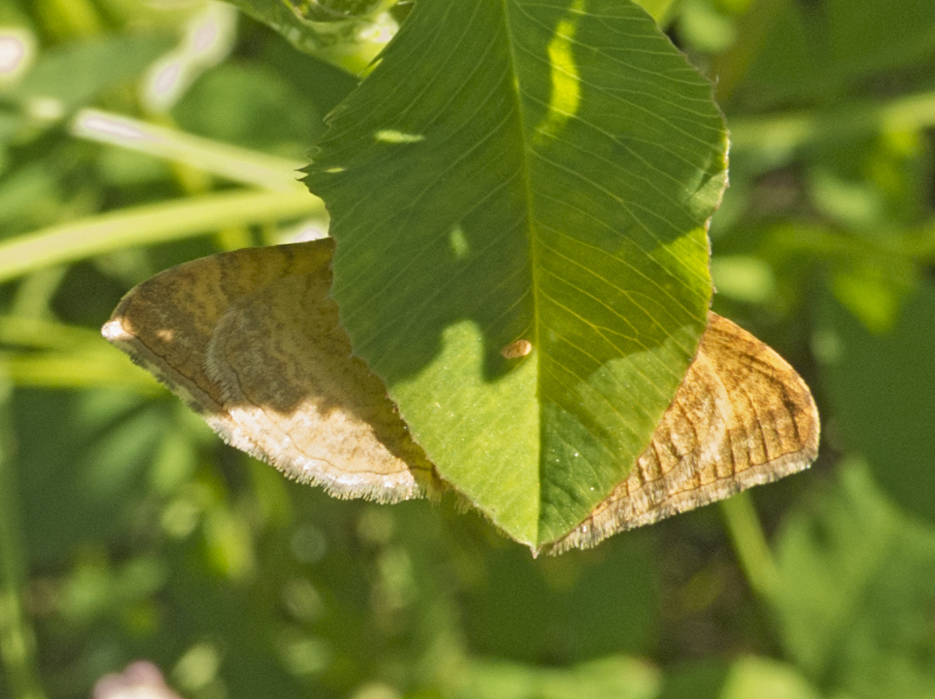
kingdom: Animalia
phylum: Arthropoda
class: Insecta
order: Lepidoptera
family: Geometridae
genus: Camptogramma
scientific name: Camptogramma bilineata
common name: Yellow shell
